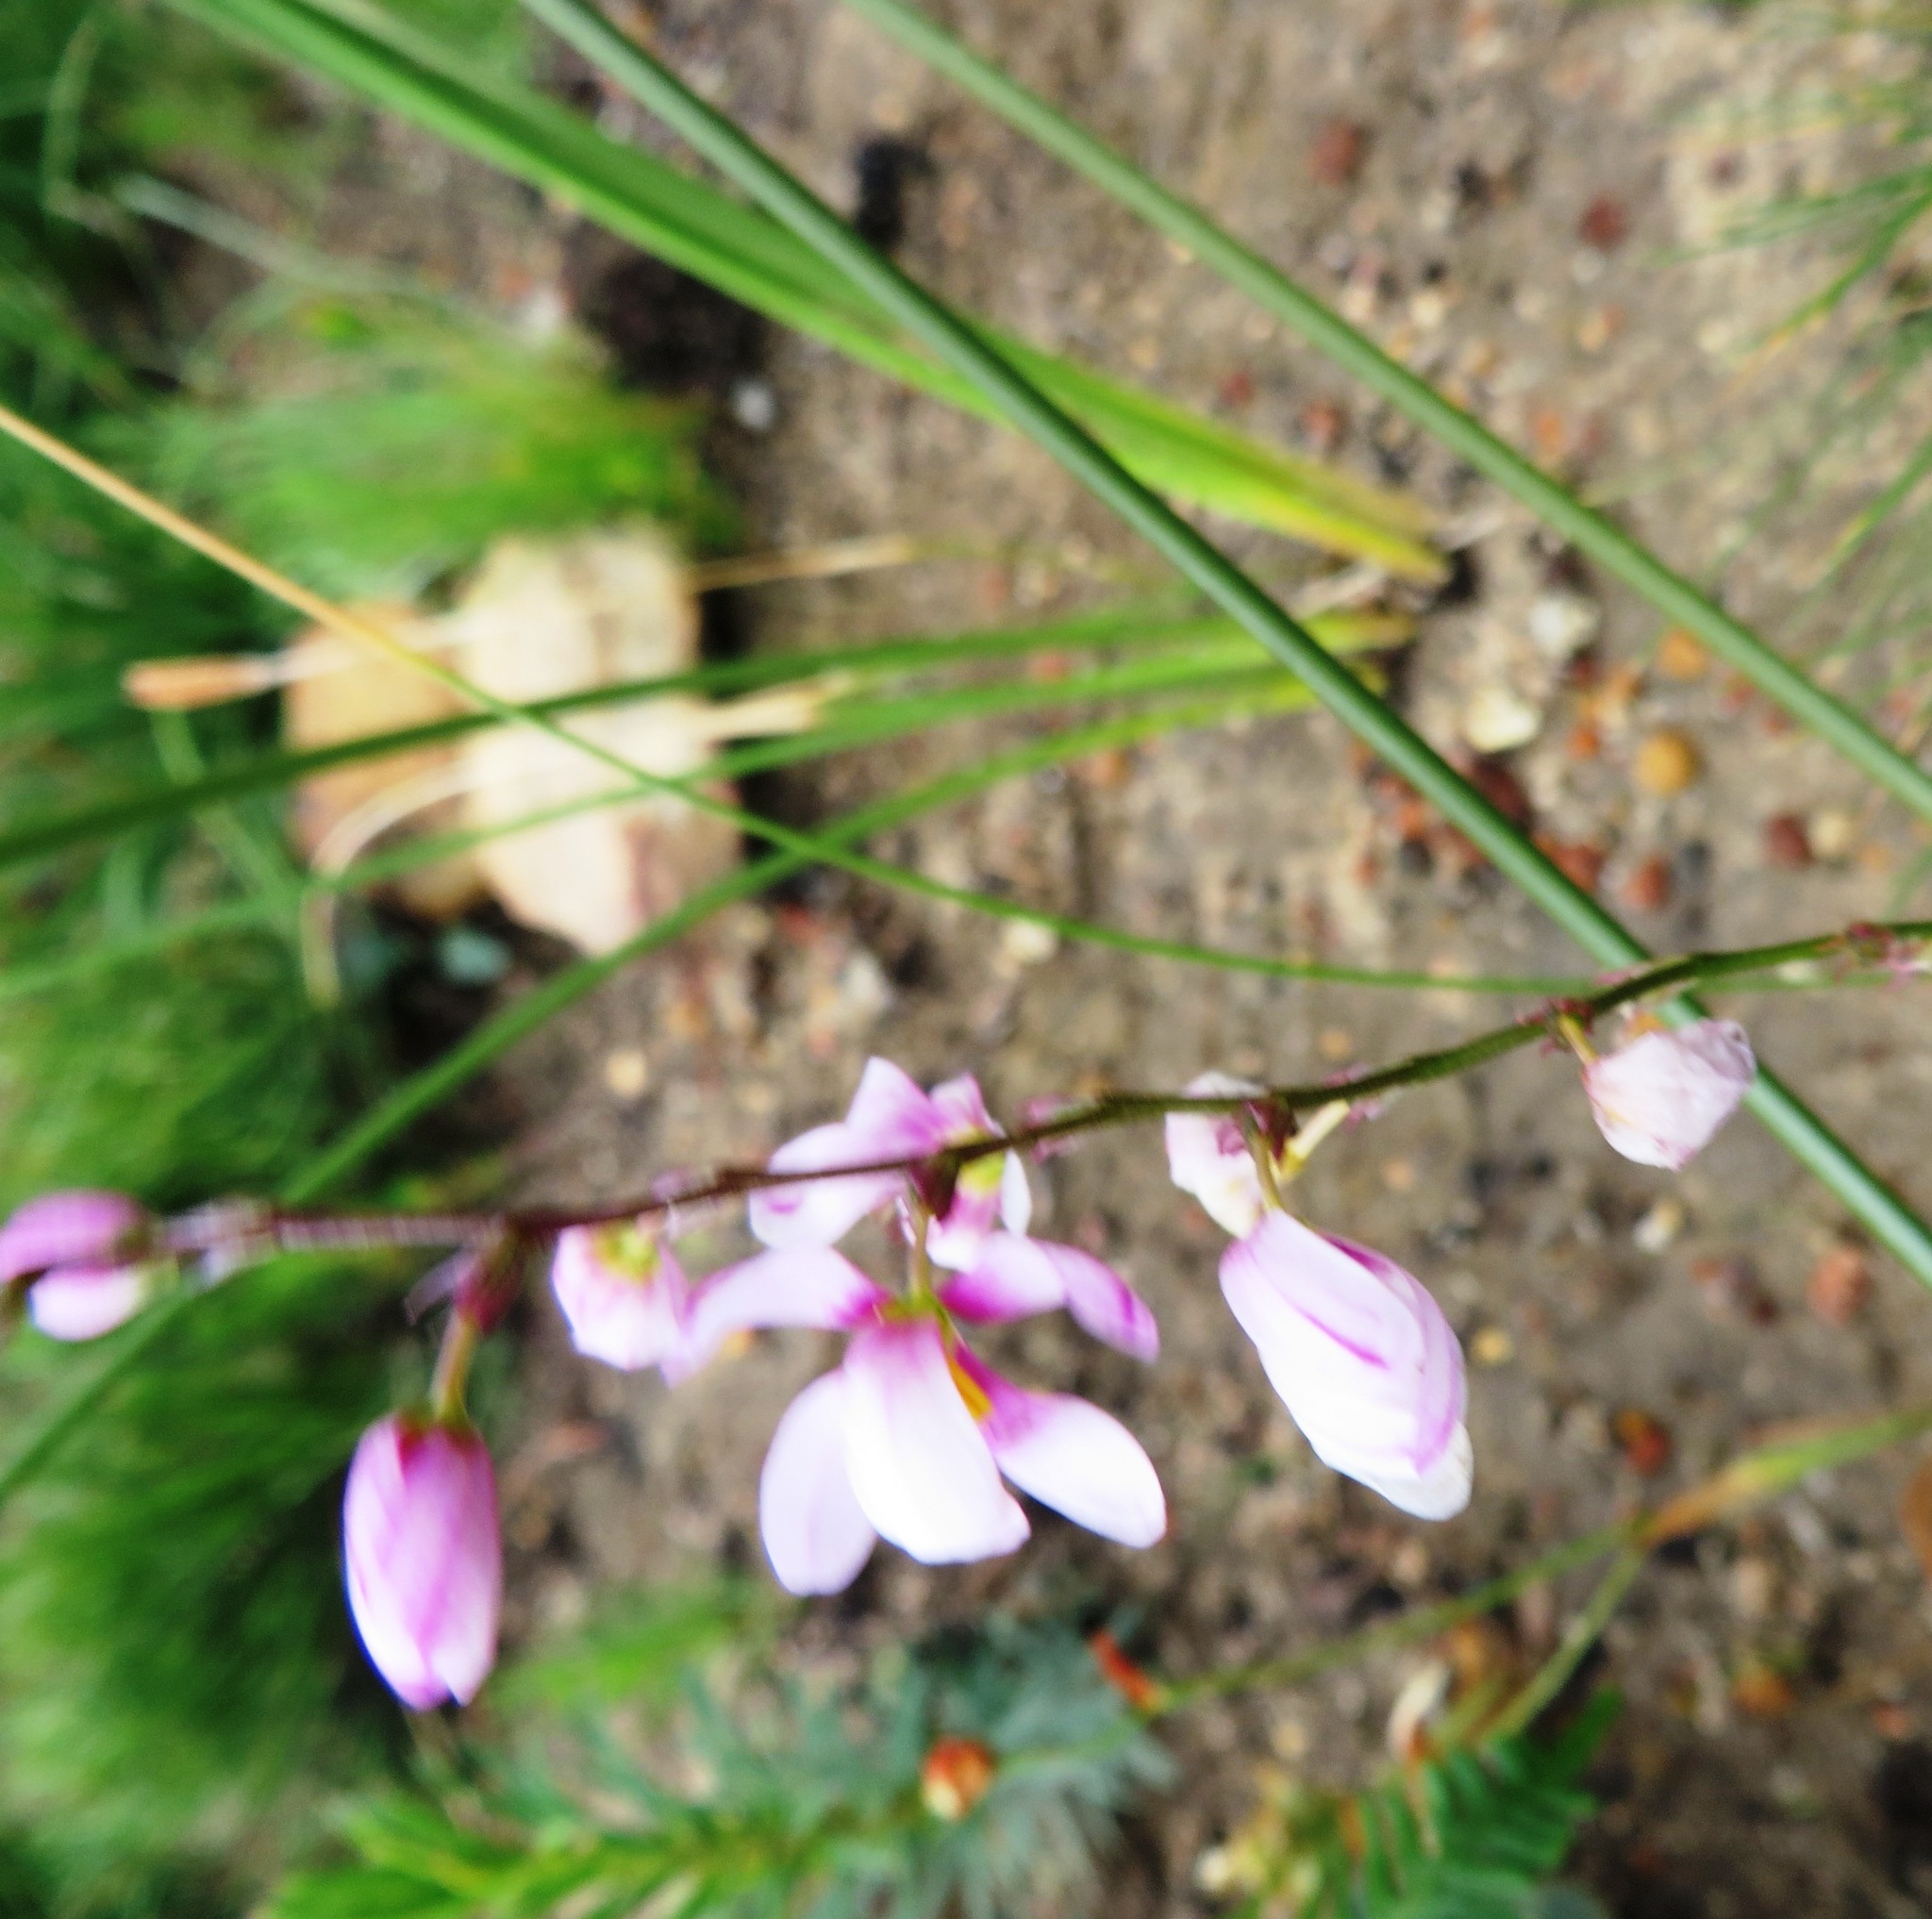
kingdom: Plantae
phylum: Tracheophyta
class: Liliopsida
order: Asparagales
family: Iridaceae
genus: Ixia
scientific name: Ixia scillaris
